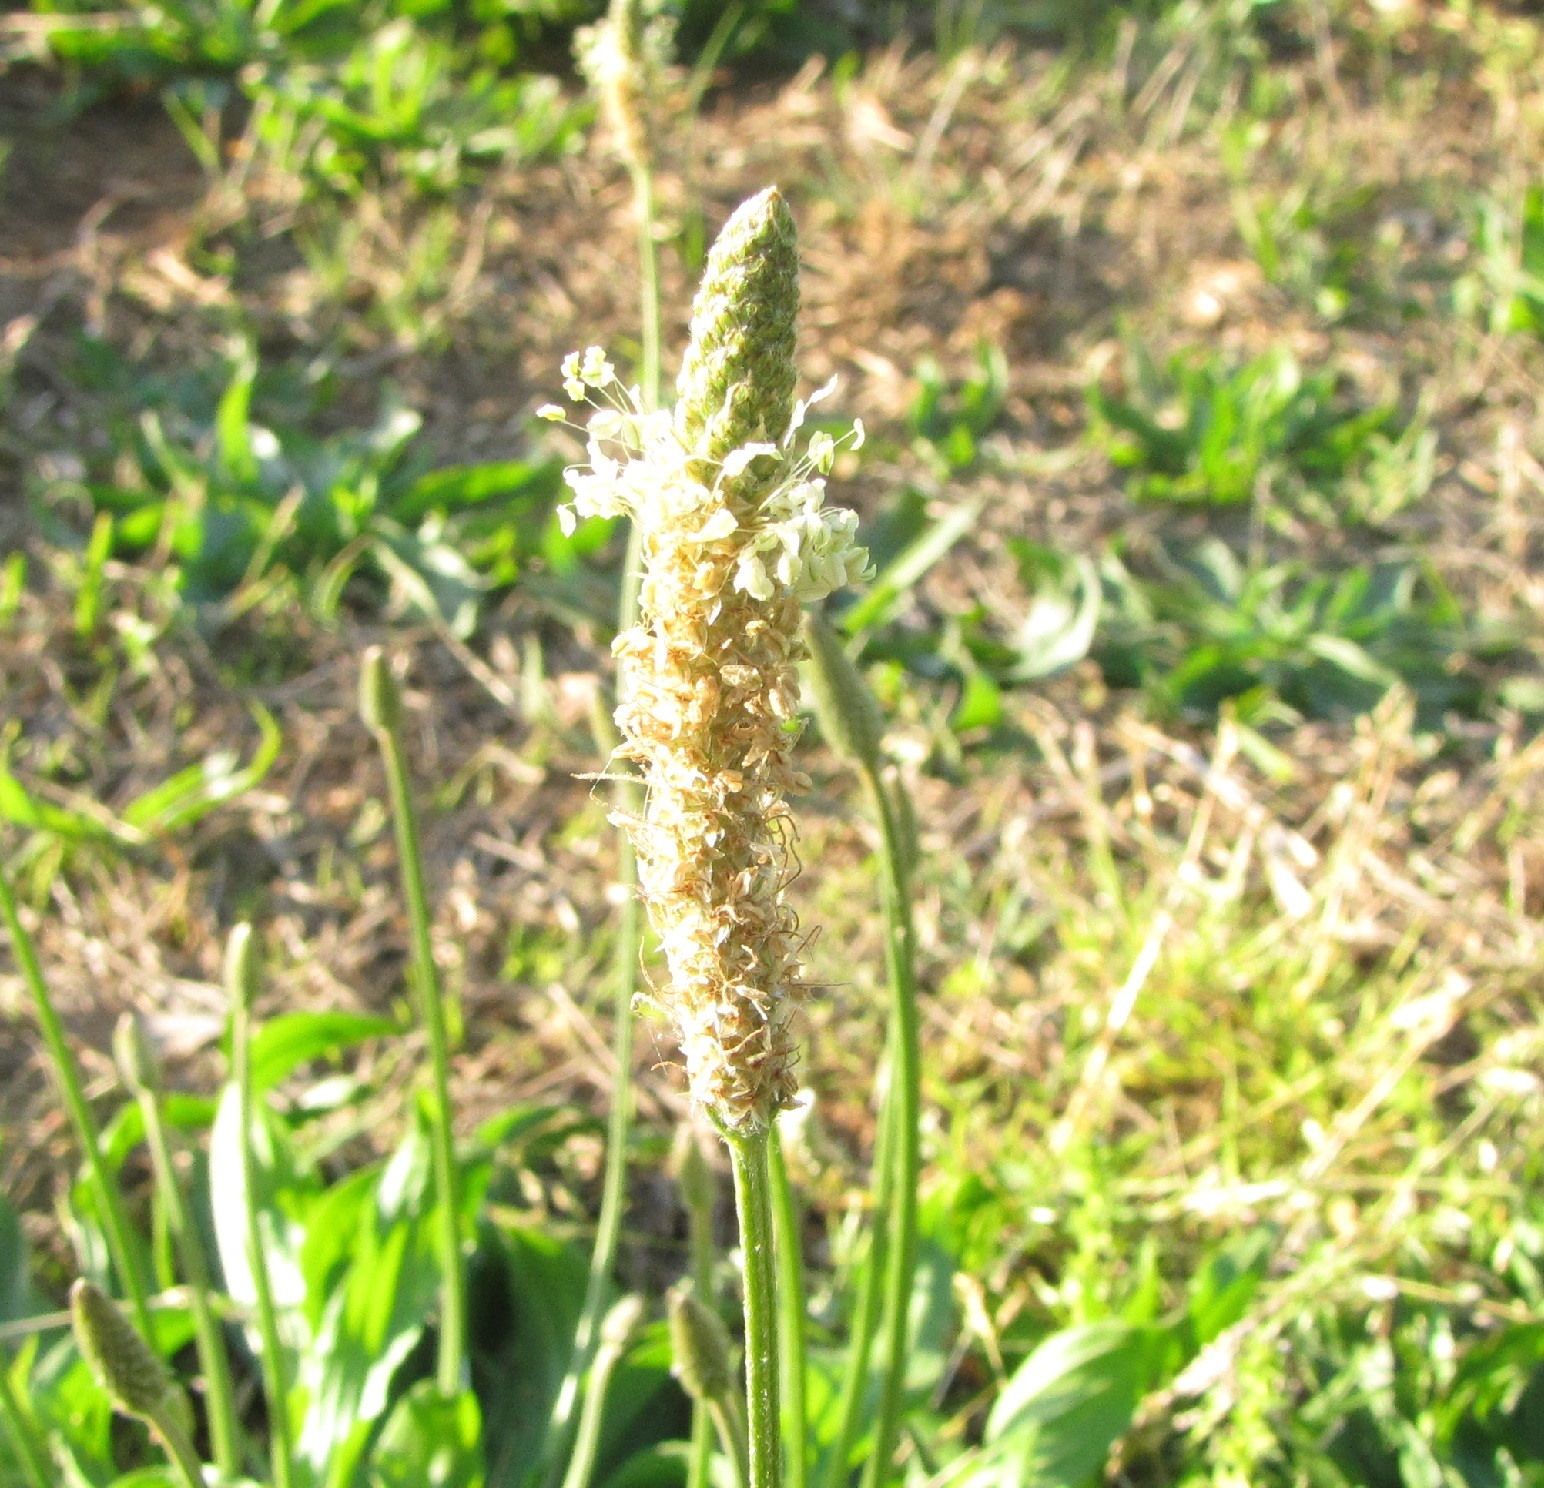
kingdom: Plantae
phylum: Tracheophyta
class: Magnoliopsida
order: Lamiales
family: Plantaginaceae
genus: Plantago
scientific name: Plantago lanceolata
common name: Ribwort plantain
